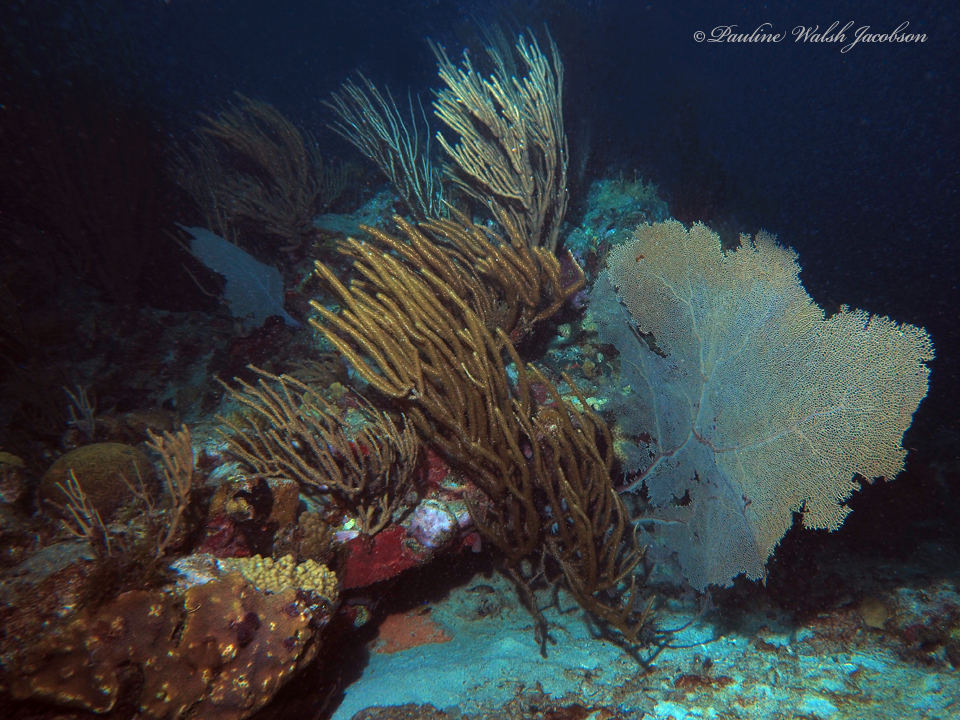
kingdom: Animalia
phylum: Cnidaria
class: Anthozoa
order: Malacalcyonacea
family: Gorgoniidae
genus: Gorgonia
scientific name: Gorgonia ventalina
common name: Common sea fan
